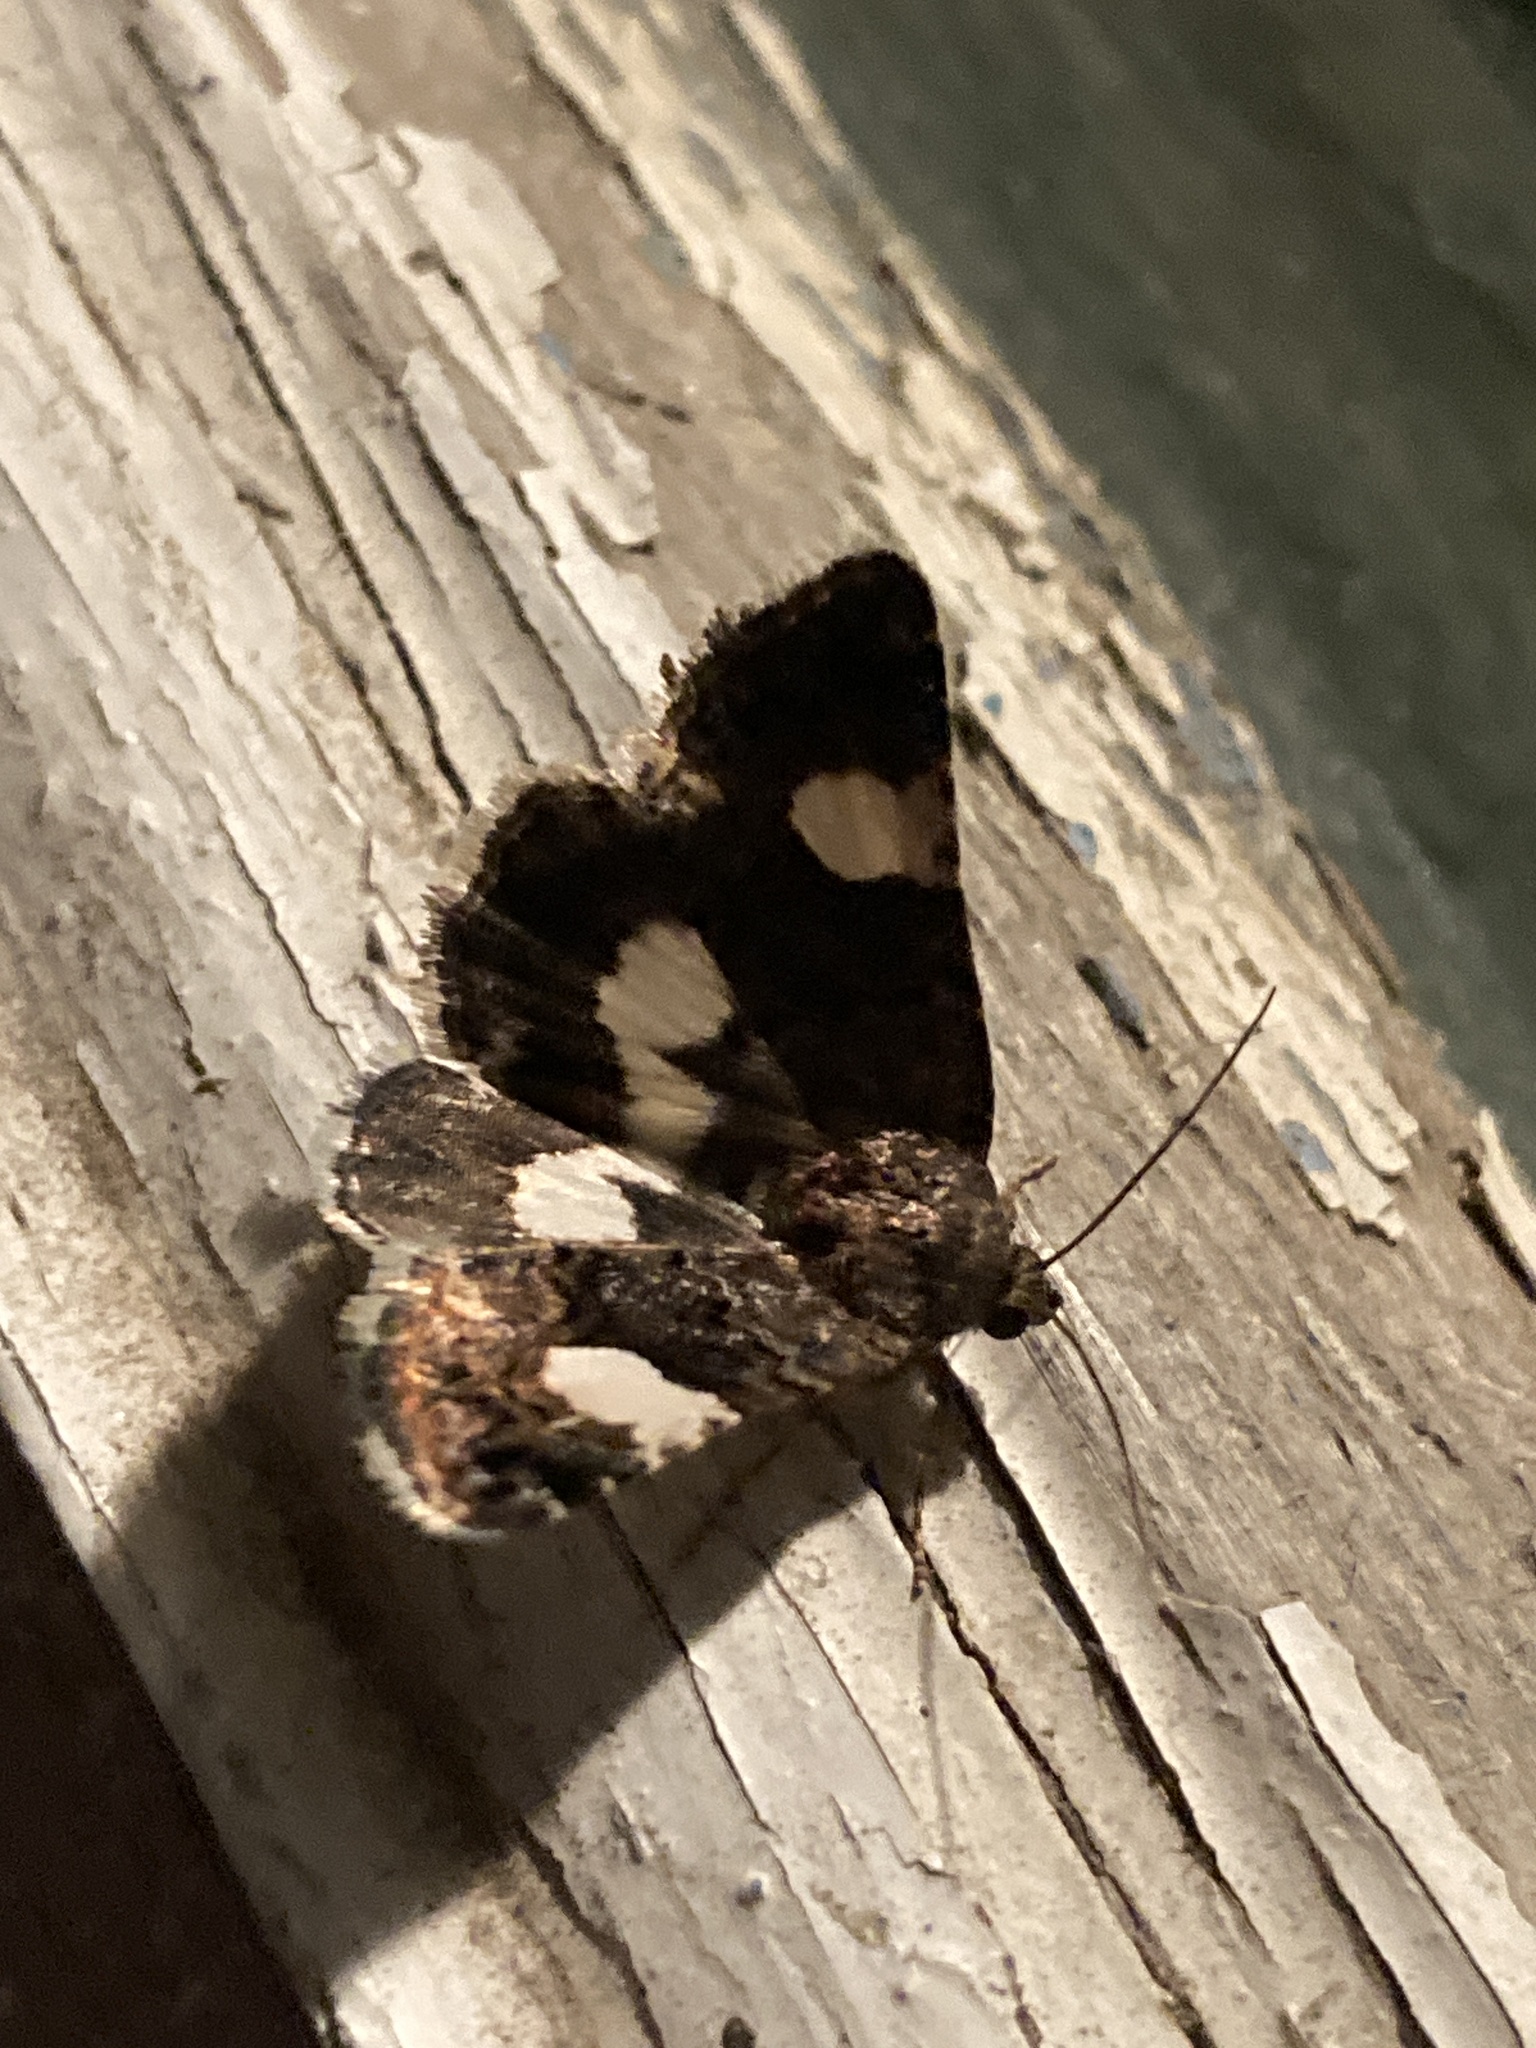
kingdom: Animalia
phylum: Arthropoda
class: Insecta
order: Lepidoptera
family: Erebidae
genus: Tyta
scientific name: Tyta luctuosa
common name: Four-spotted
